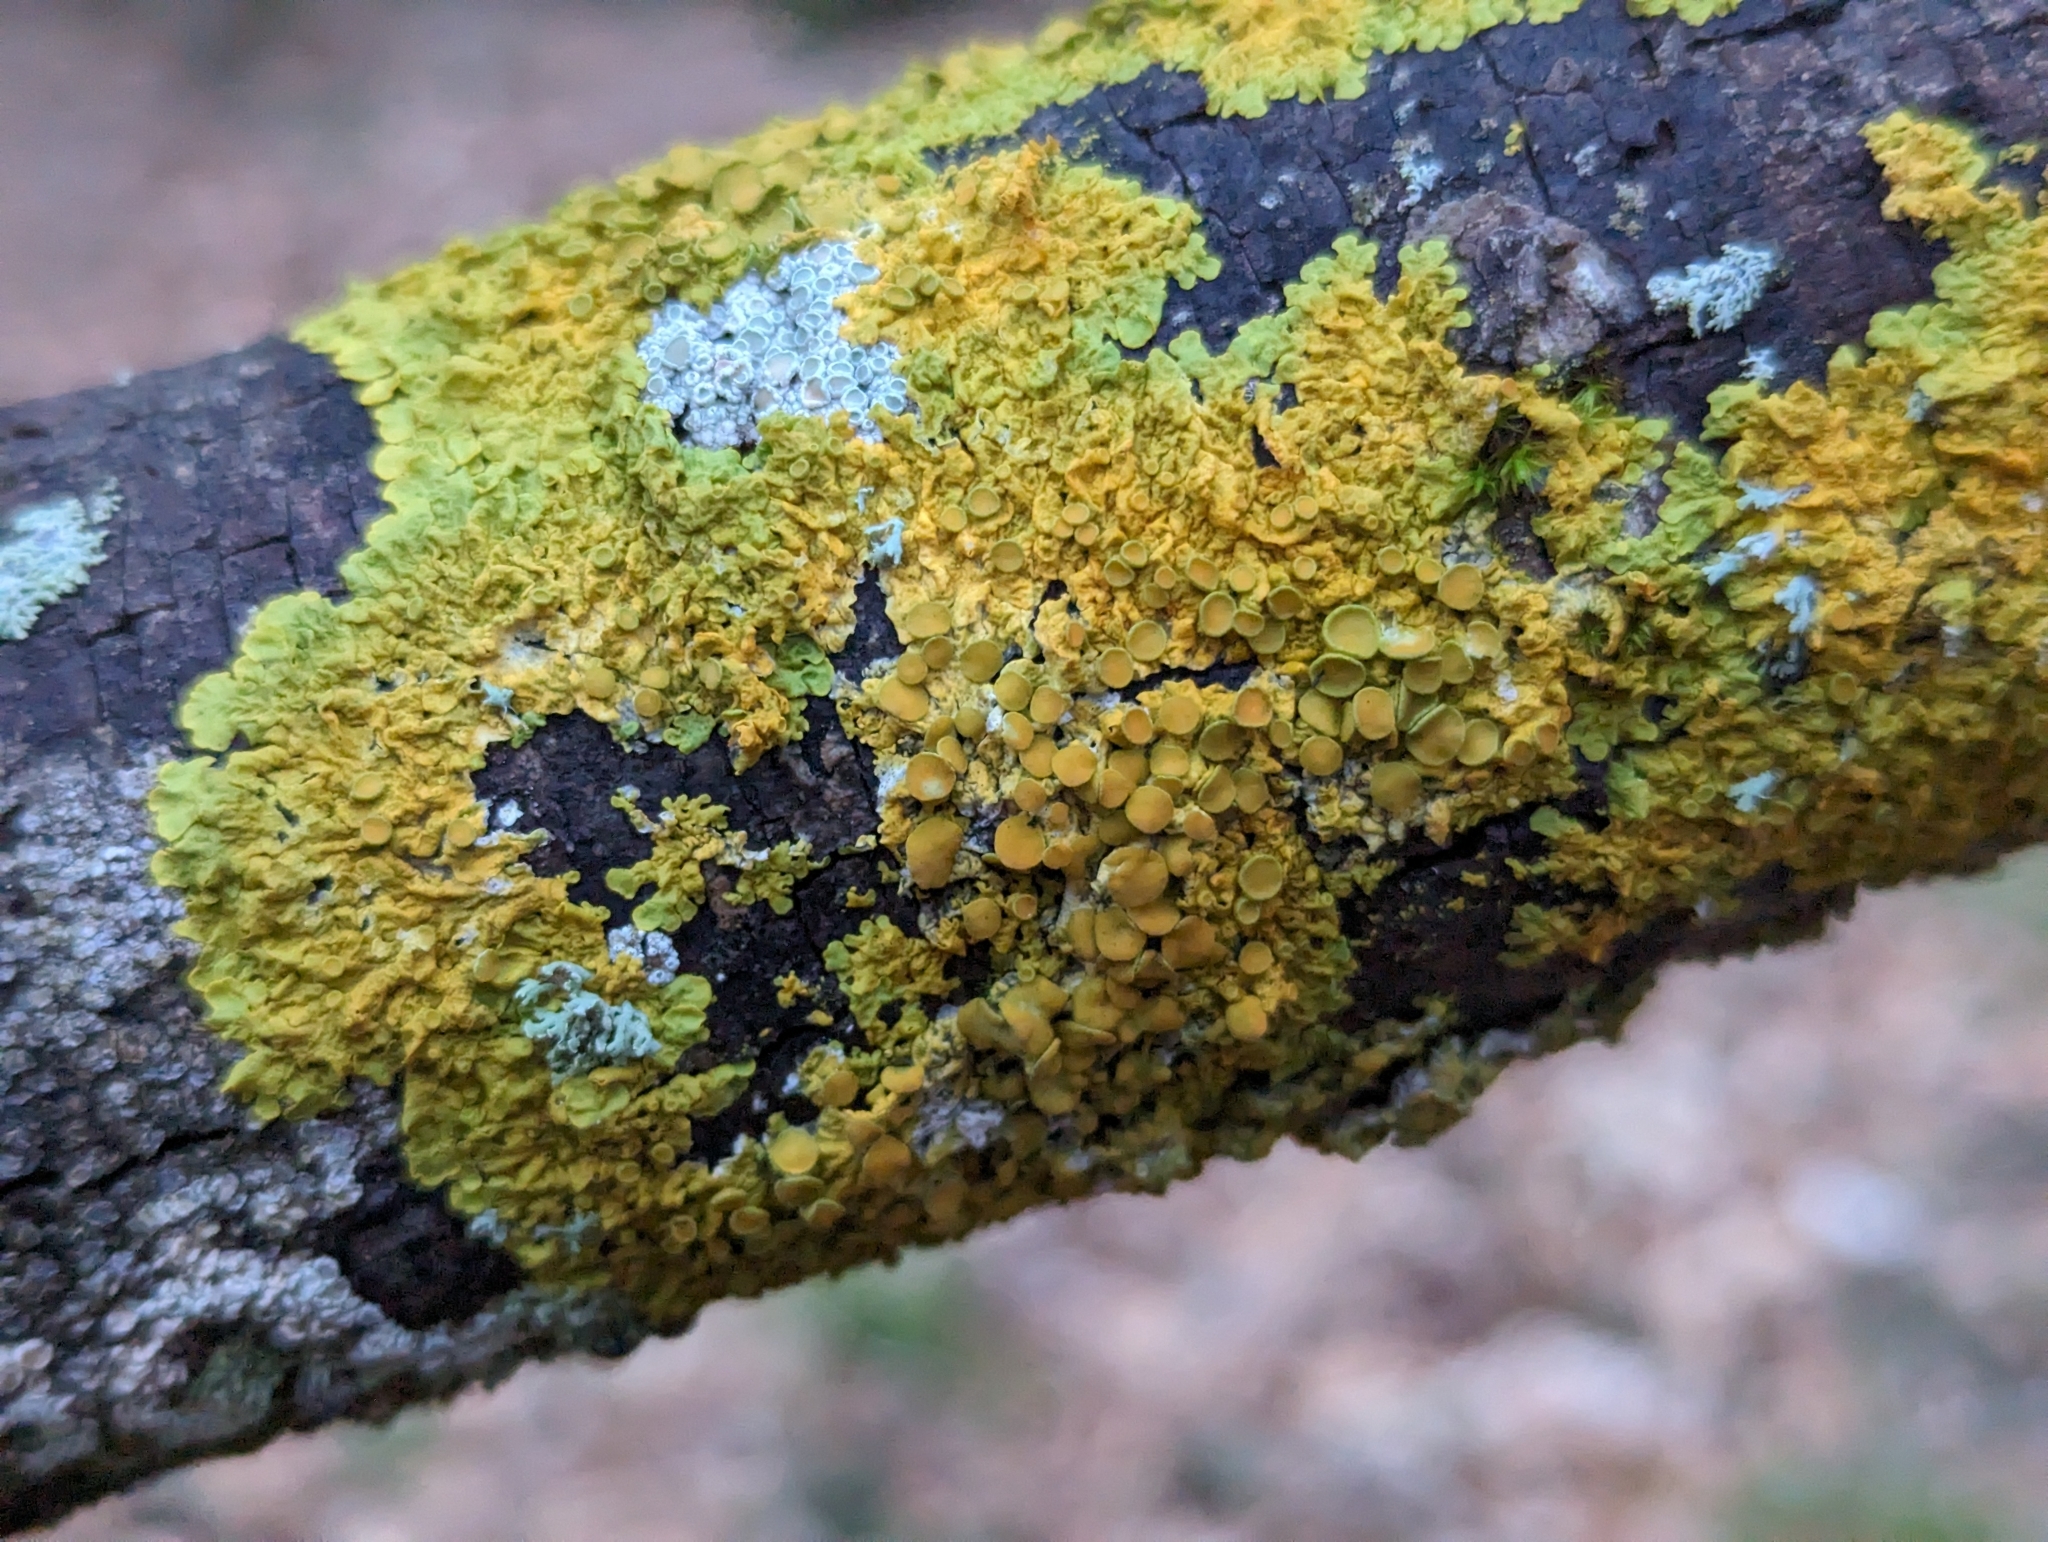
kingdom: Fungi
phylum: Ascomycota
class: Lecanoromycetes
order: Teloschistales
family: Teloschistaceae
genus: Xanthoria
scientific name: Xanthoria parietina
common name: Common orange lichen
